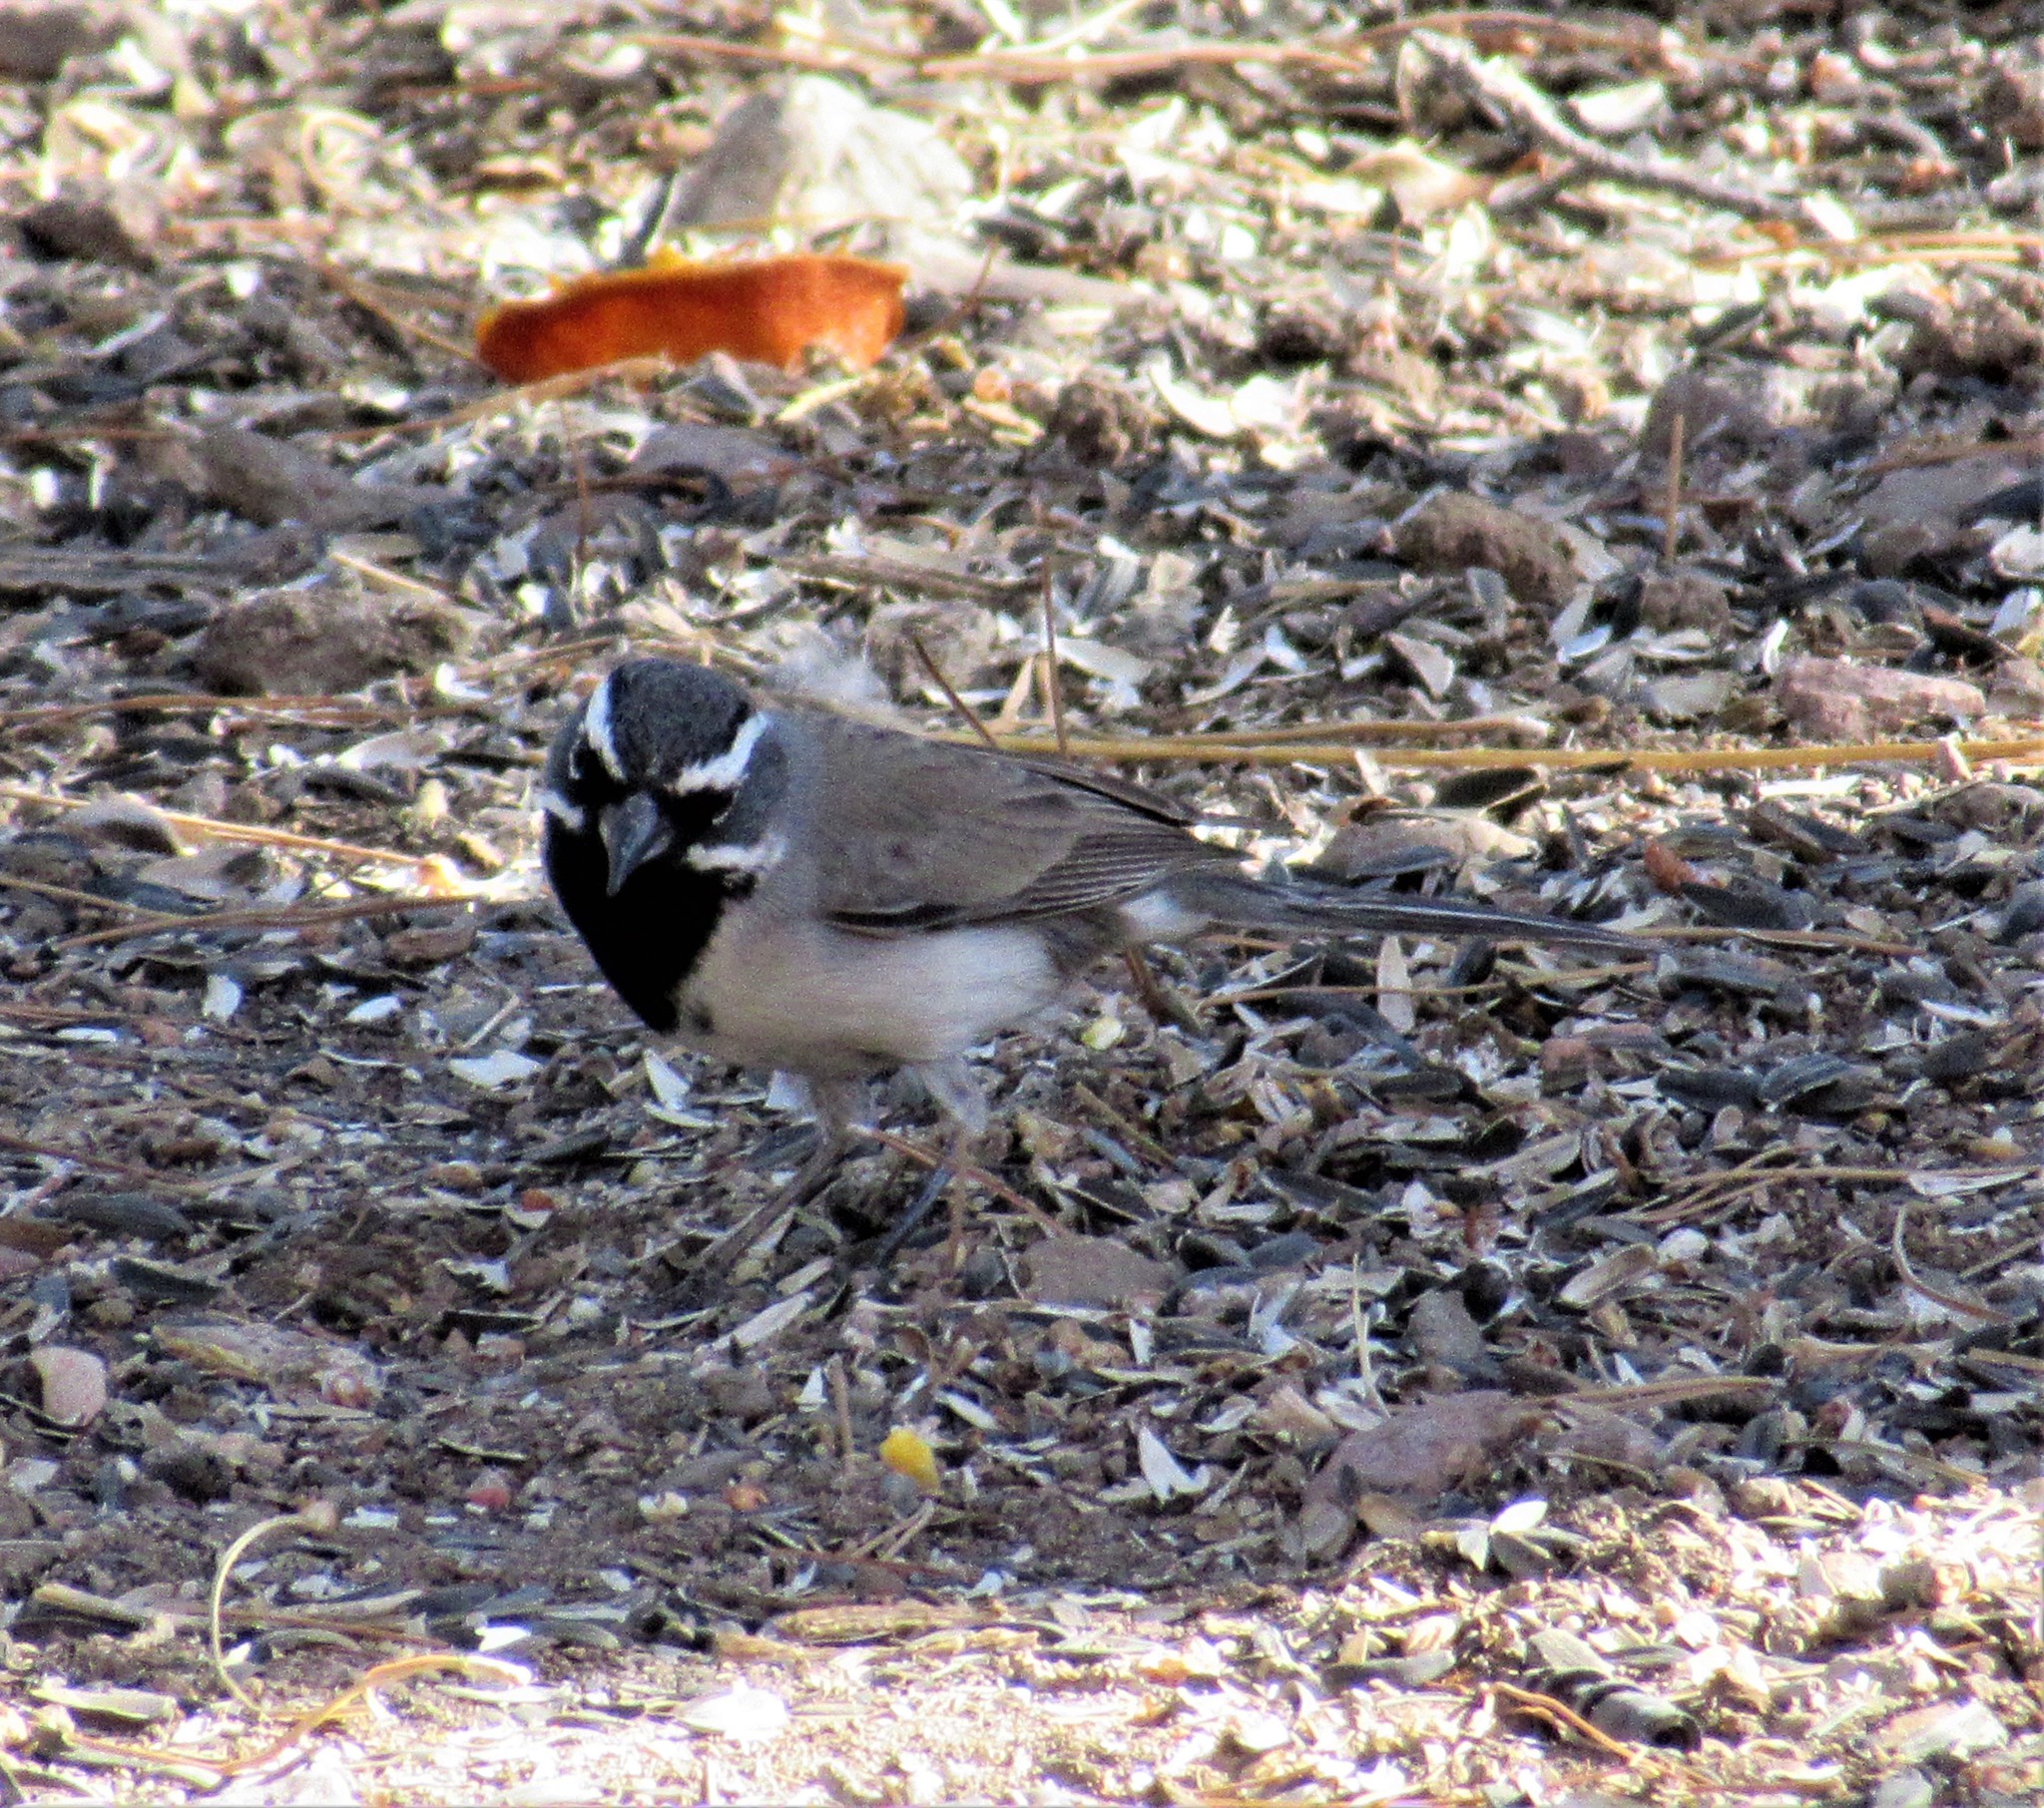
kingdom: Animalia
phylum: Chordata
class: Aves
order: Passeriformes
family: Passerellidae
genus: Amphispiza
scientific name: Amphispiza bilineata
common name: Black-throated sparrow
